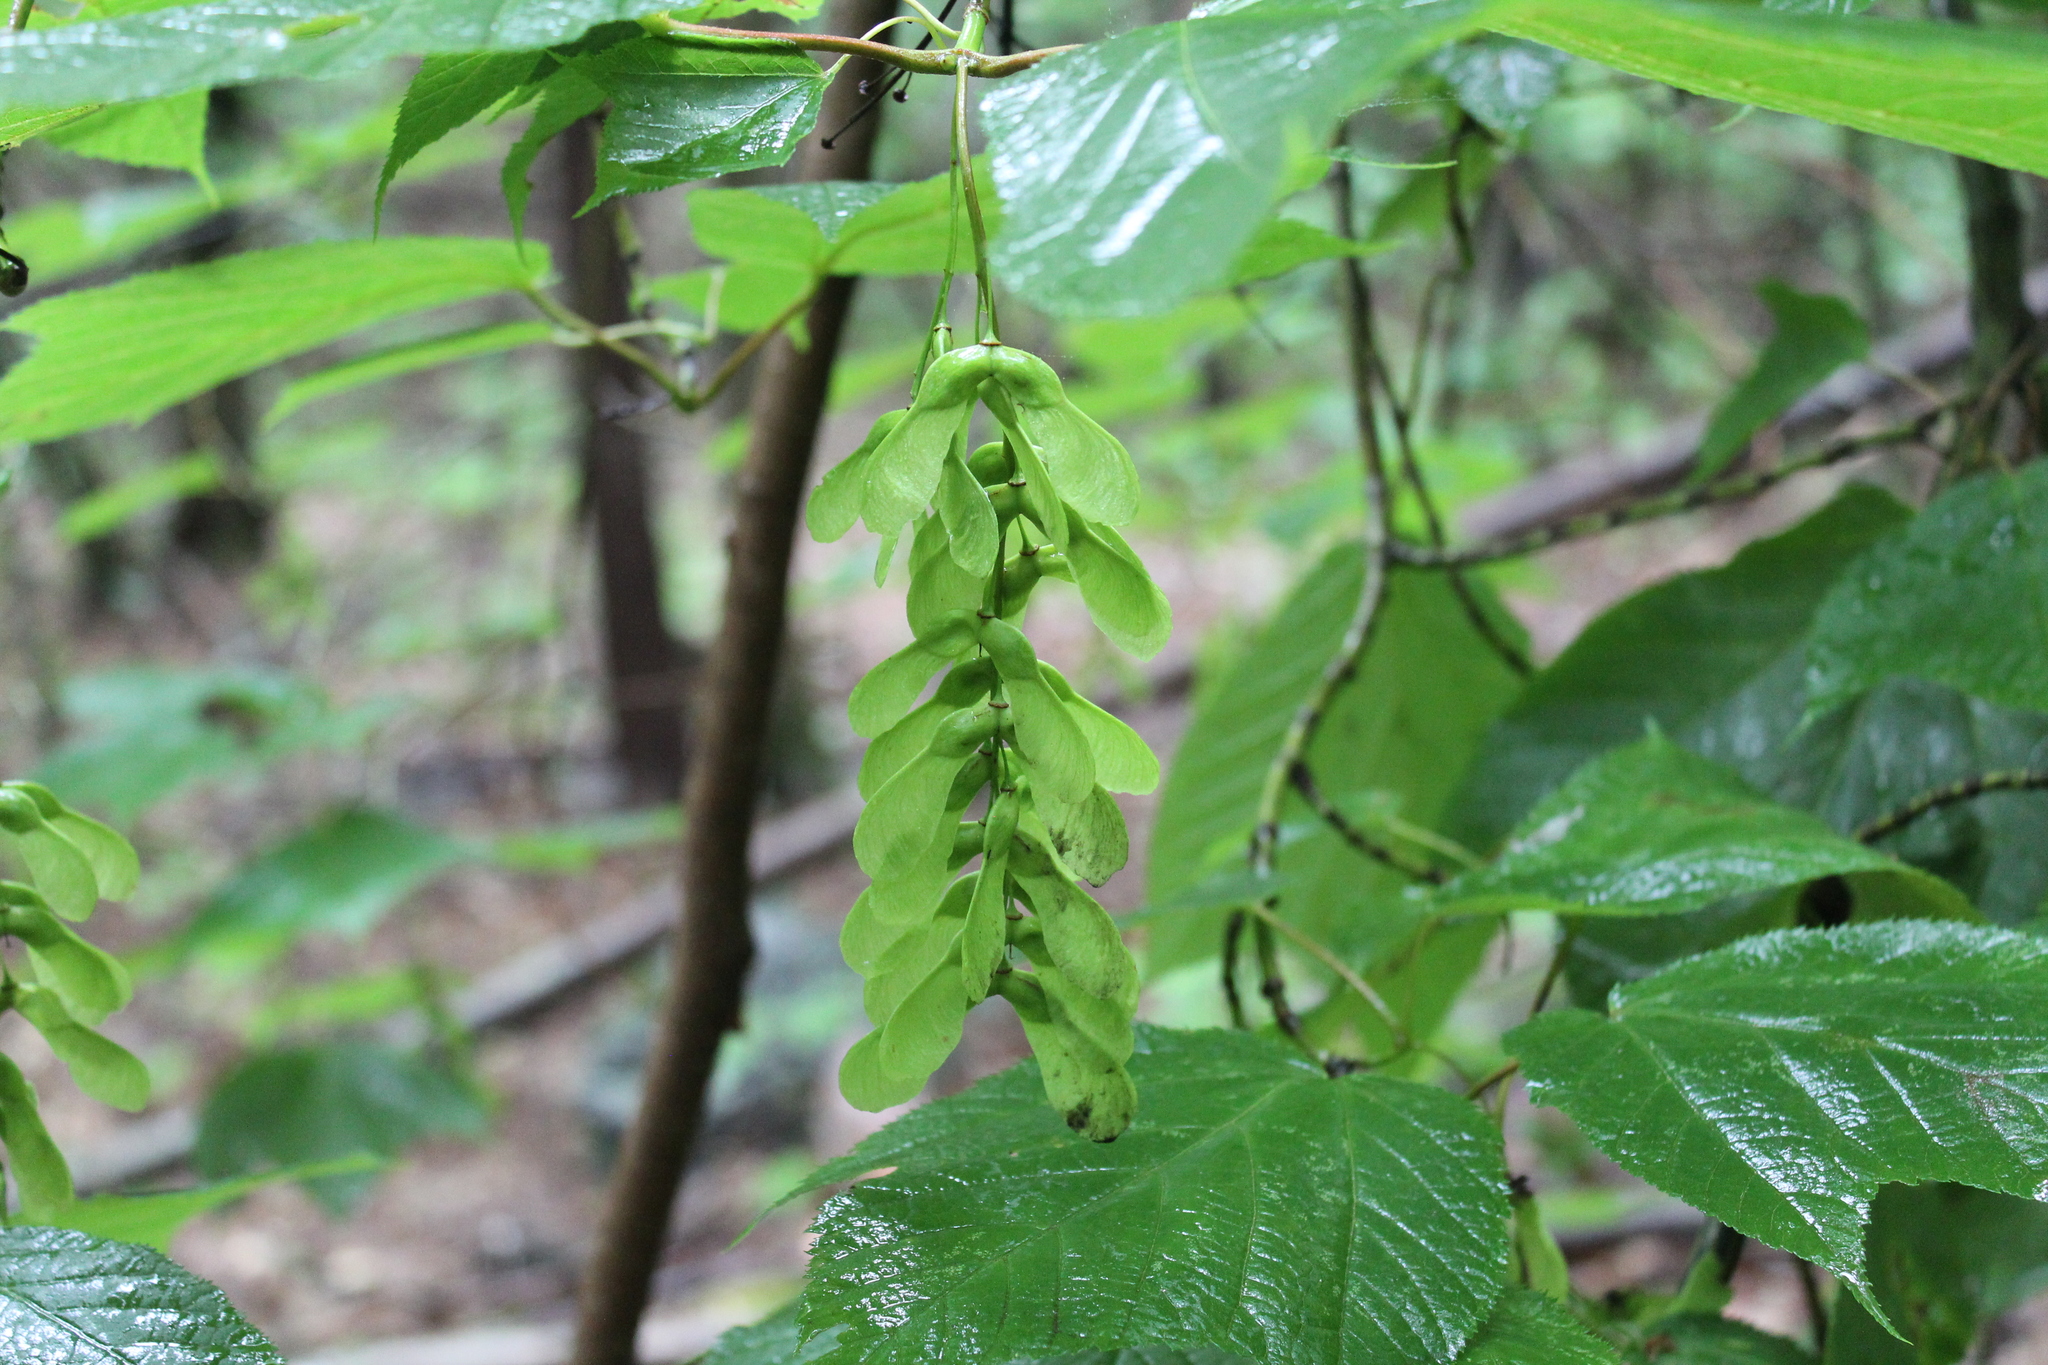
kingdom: Plantae
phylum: Tracheophyta
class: Magnoliopsida
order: Sapindales
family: Sapindaceae
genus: Acer
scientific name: Acer pensylvanicum
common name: Moosewood
